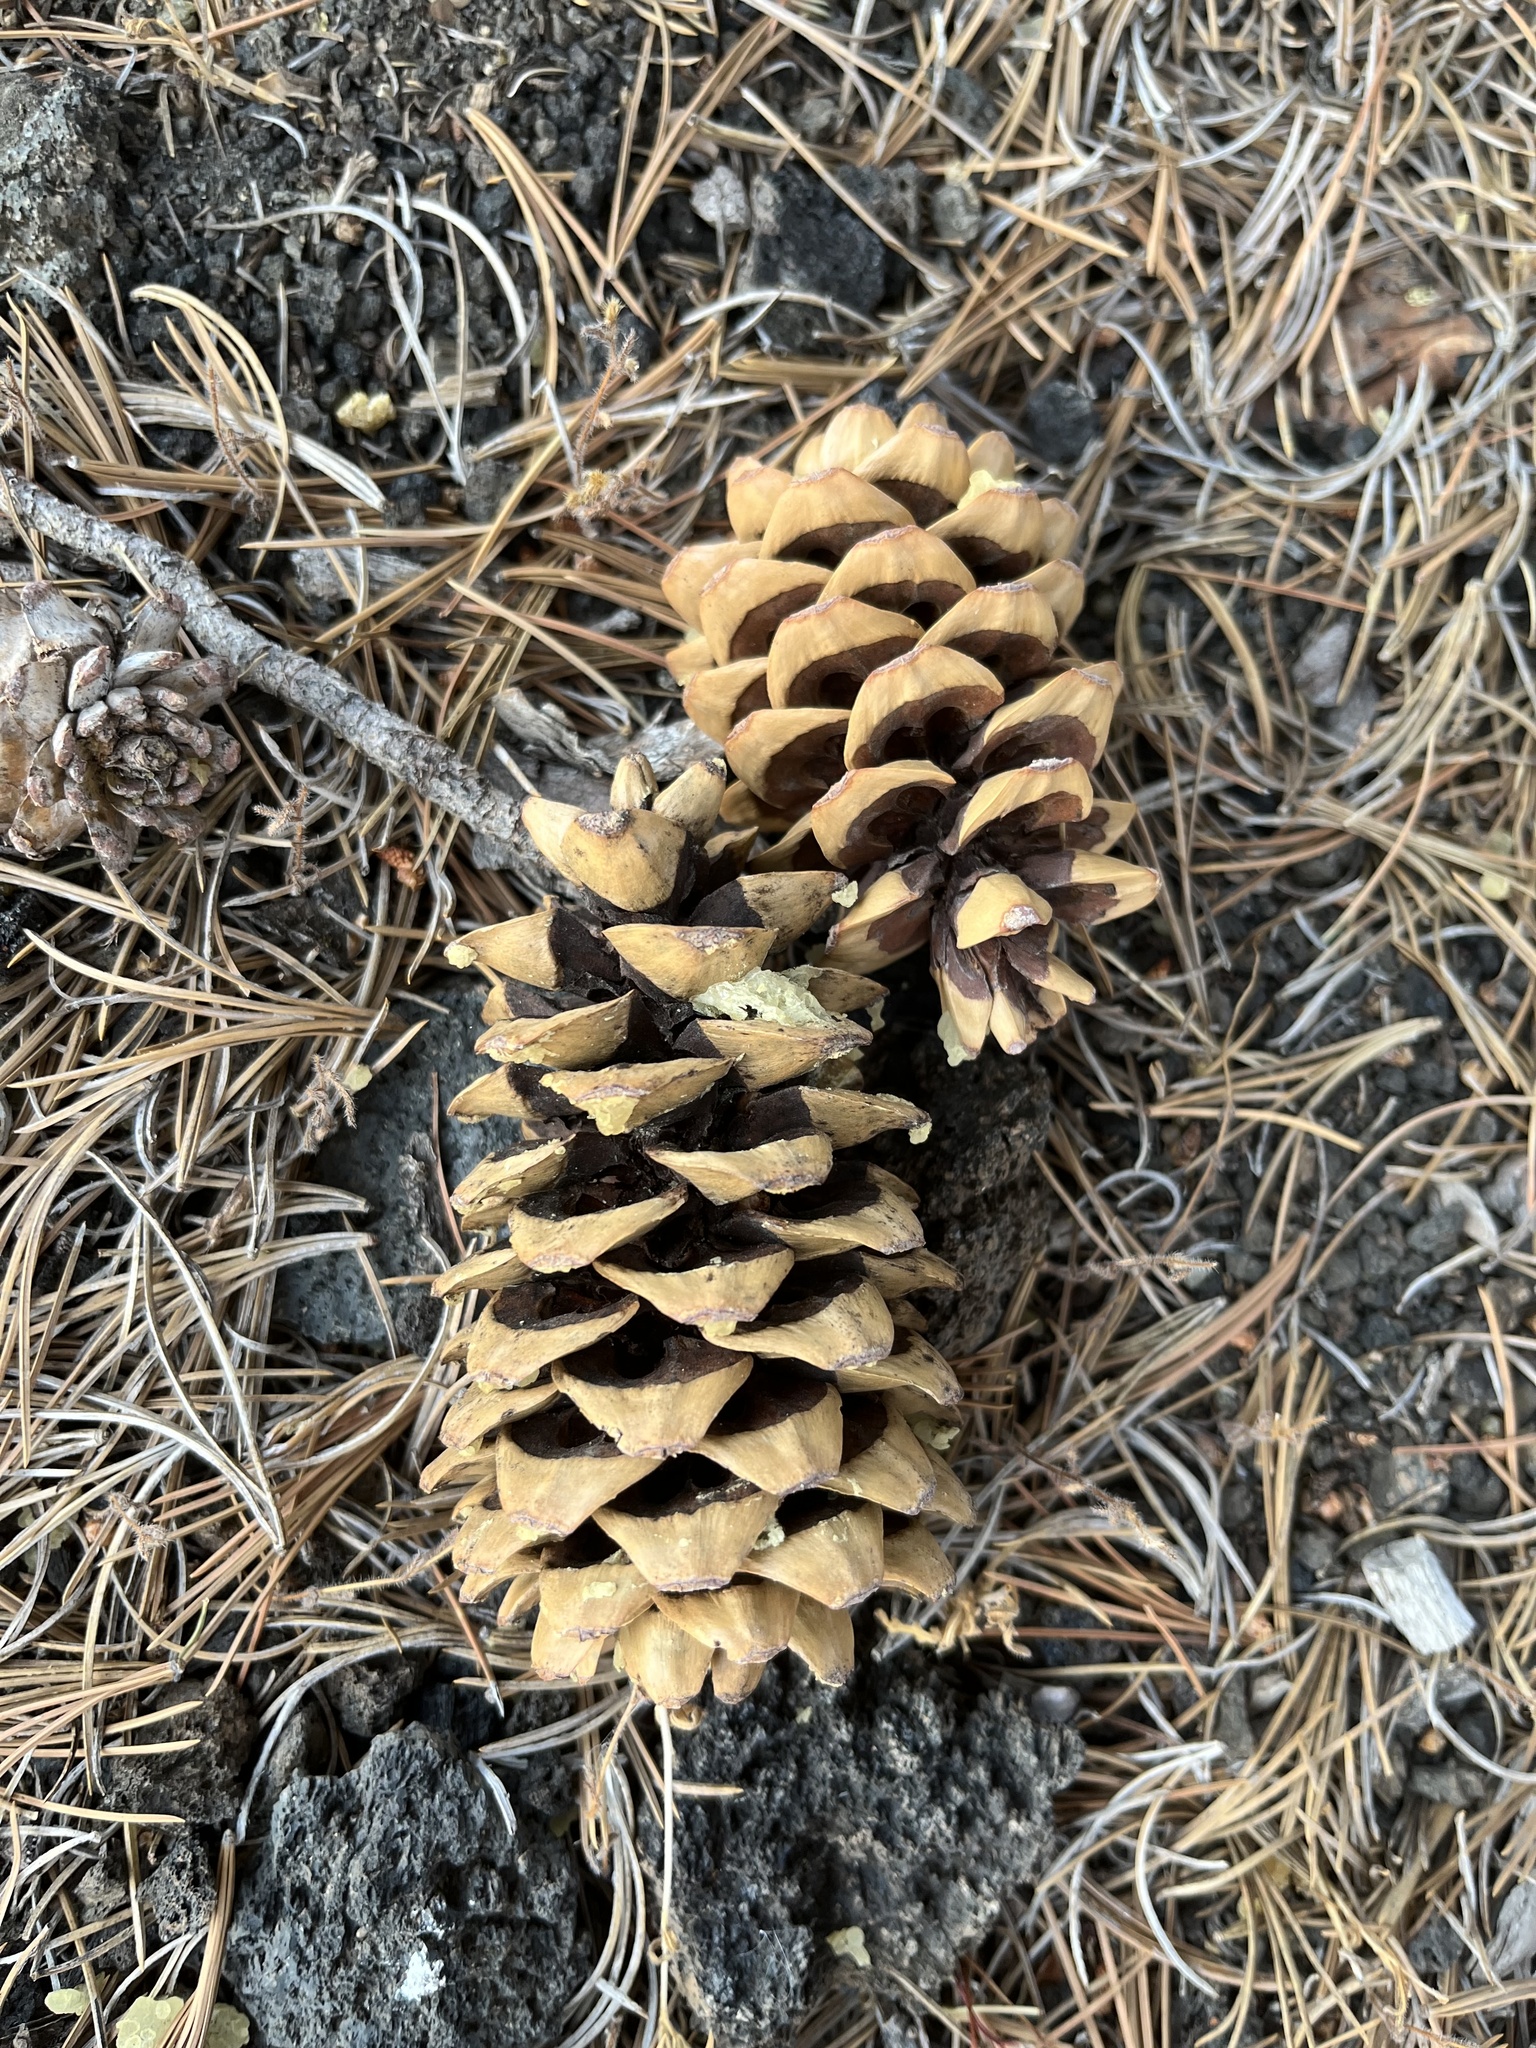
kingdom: Plantae
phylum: Tracheophyta
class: Pinopsida
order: Pinales
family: Pinaceae
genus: Pinus
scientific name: Pinus flexilis
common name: Limber pine
